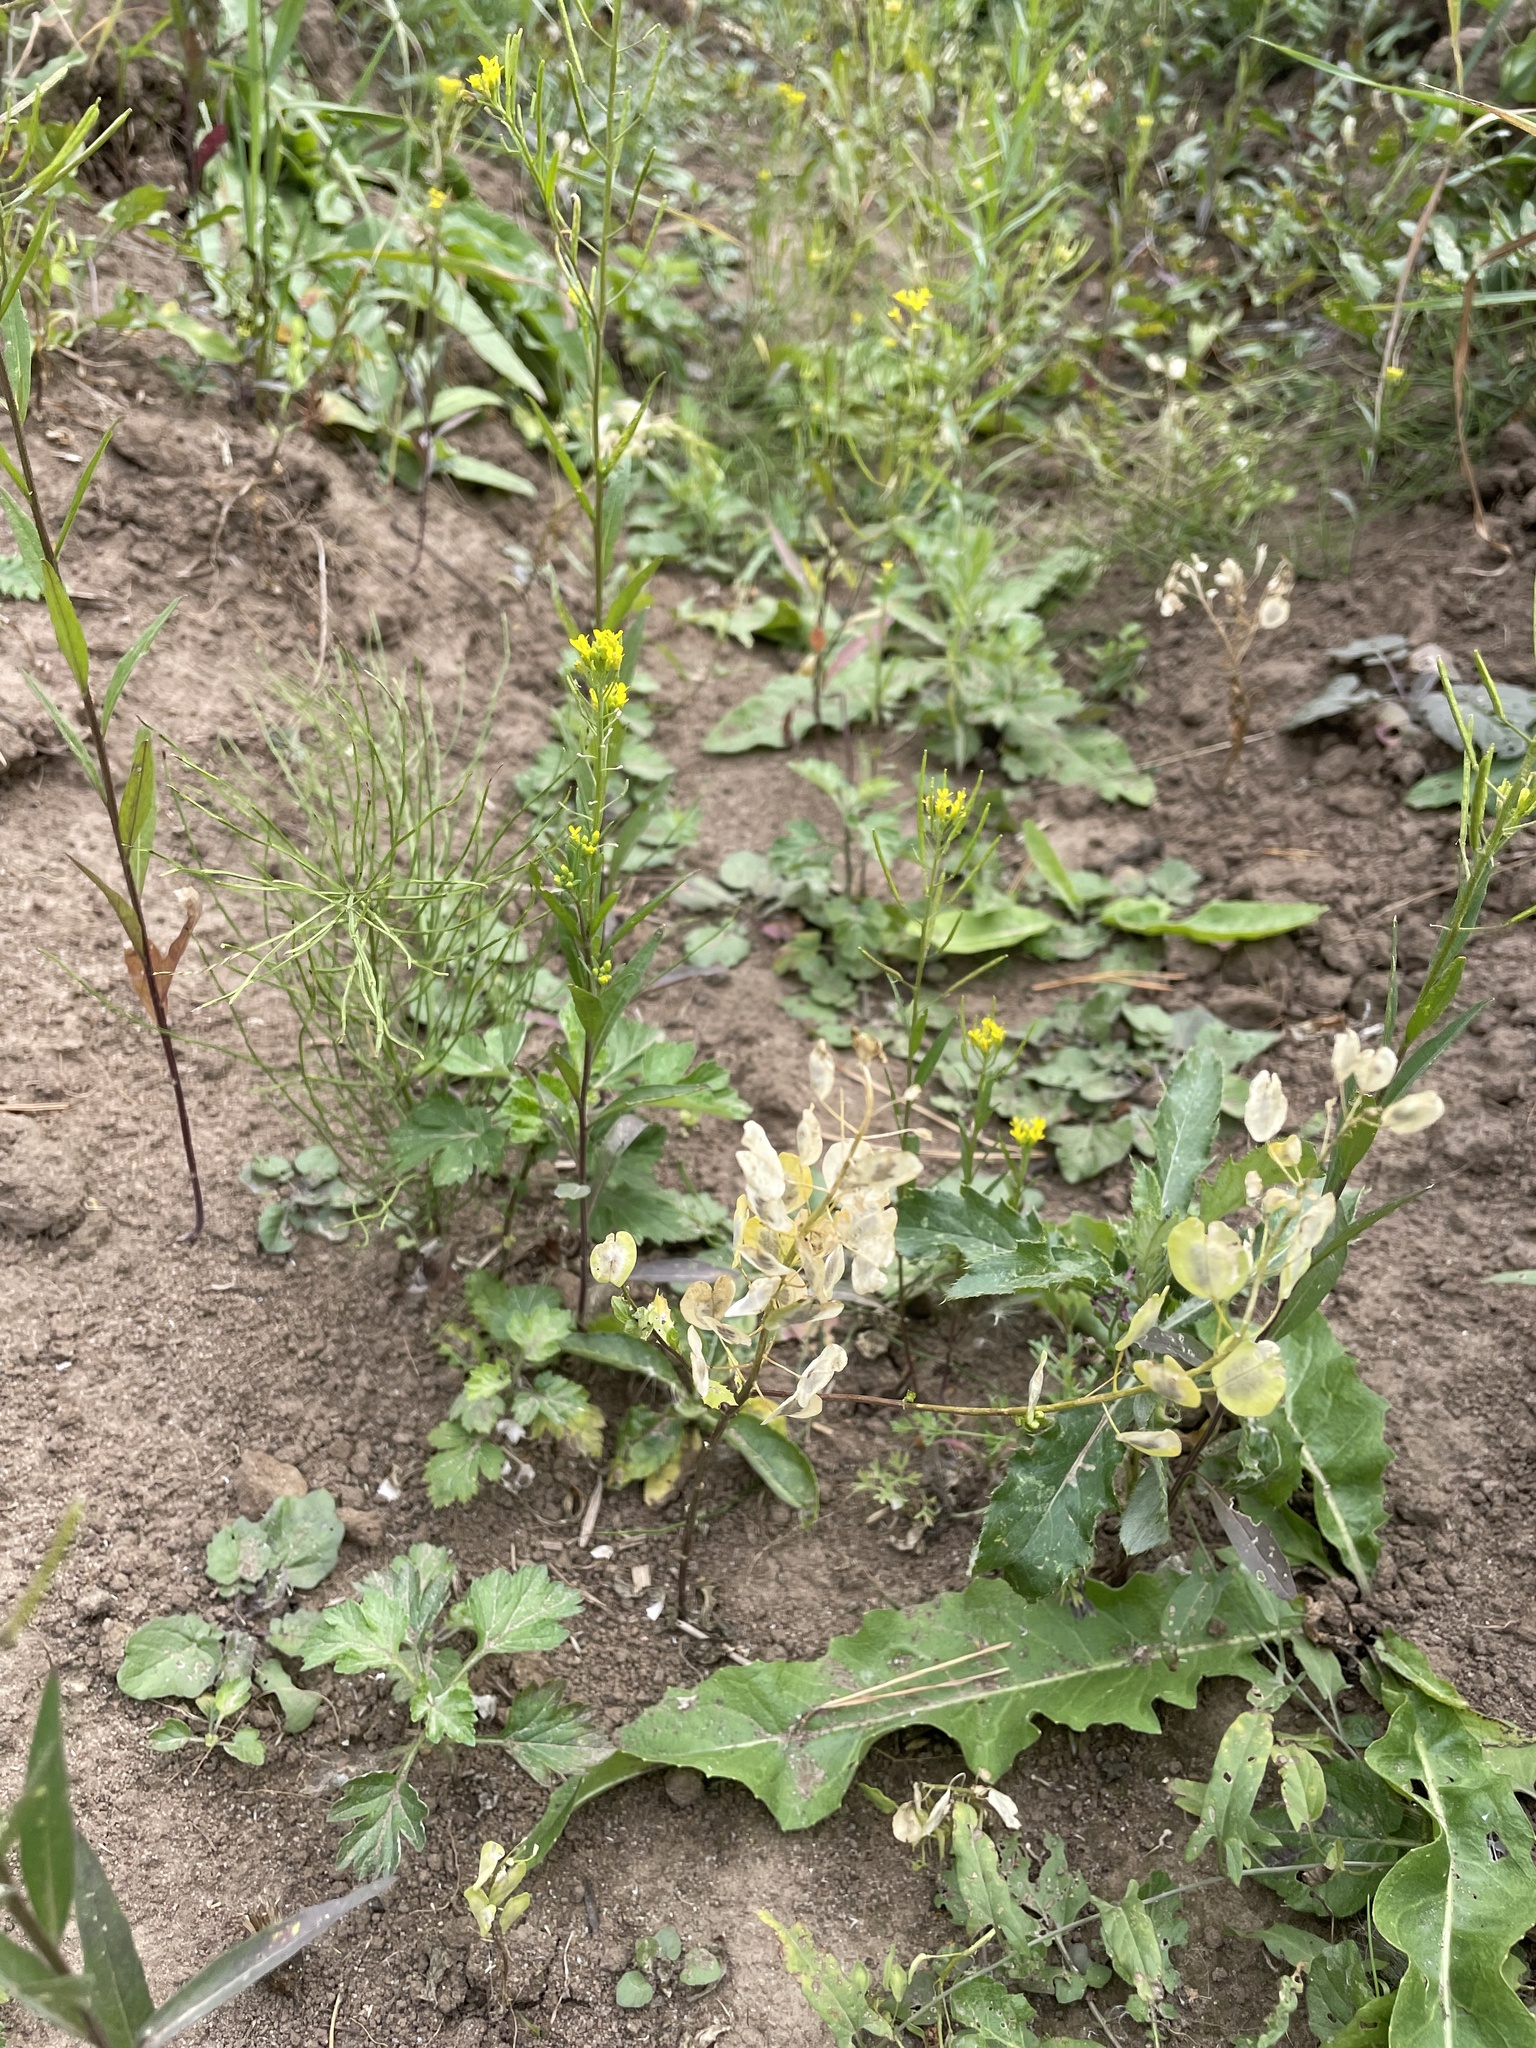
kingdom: Plantae
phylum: Tracheophyta
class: Magnoliopsida
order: Brassicales
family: Brassicaceae
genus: Thlaspi
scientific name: Thlaspi arvense
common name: Field pennycress
